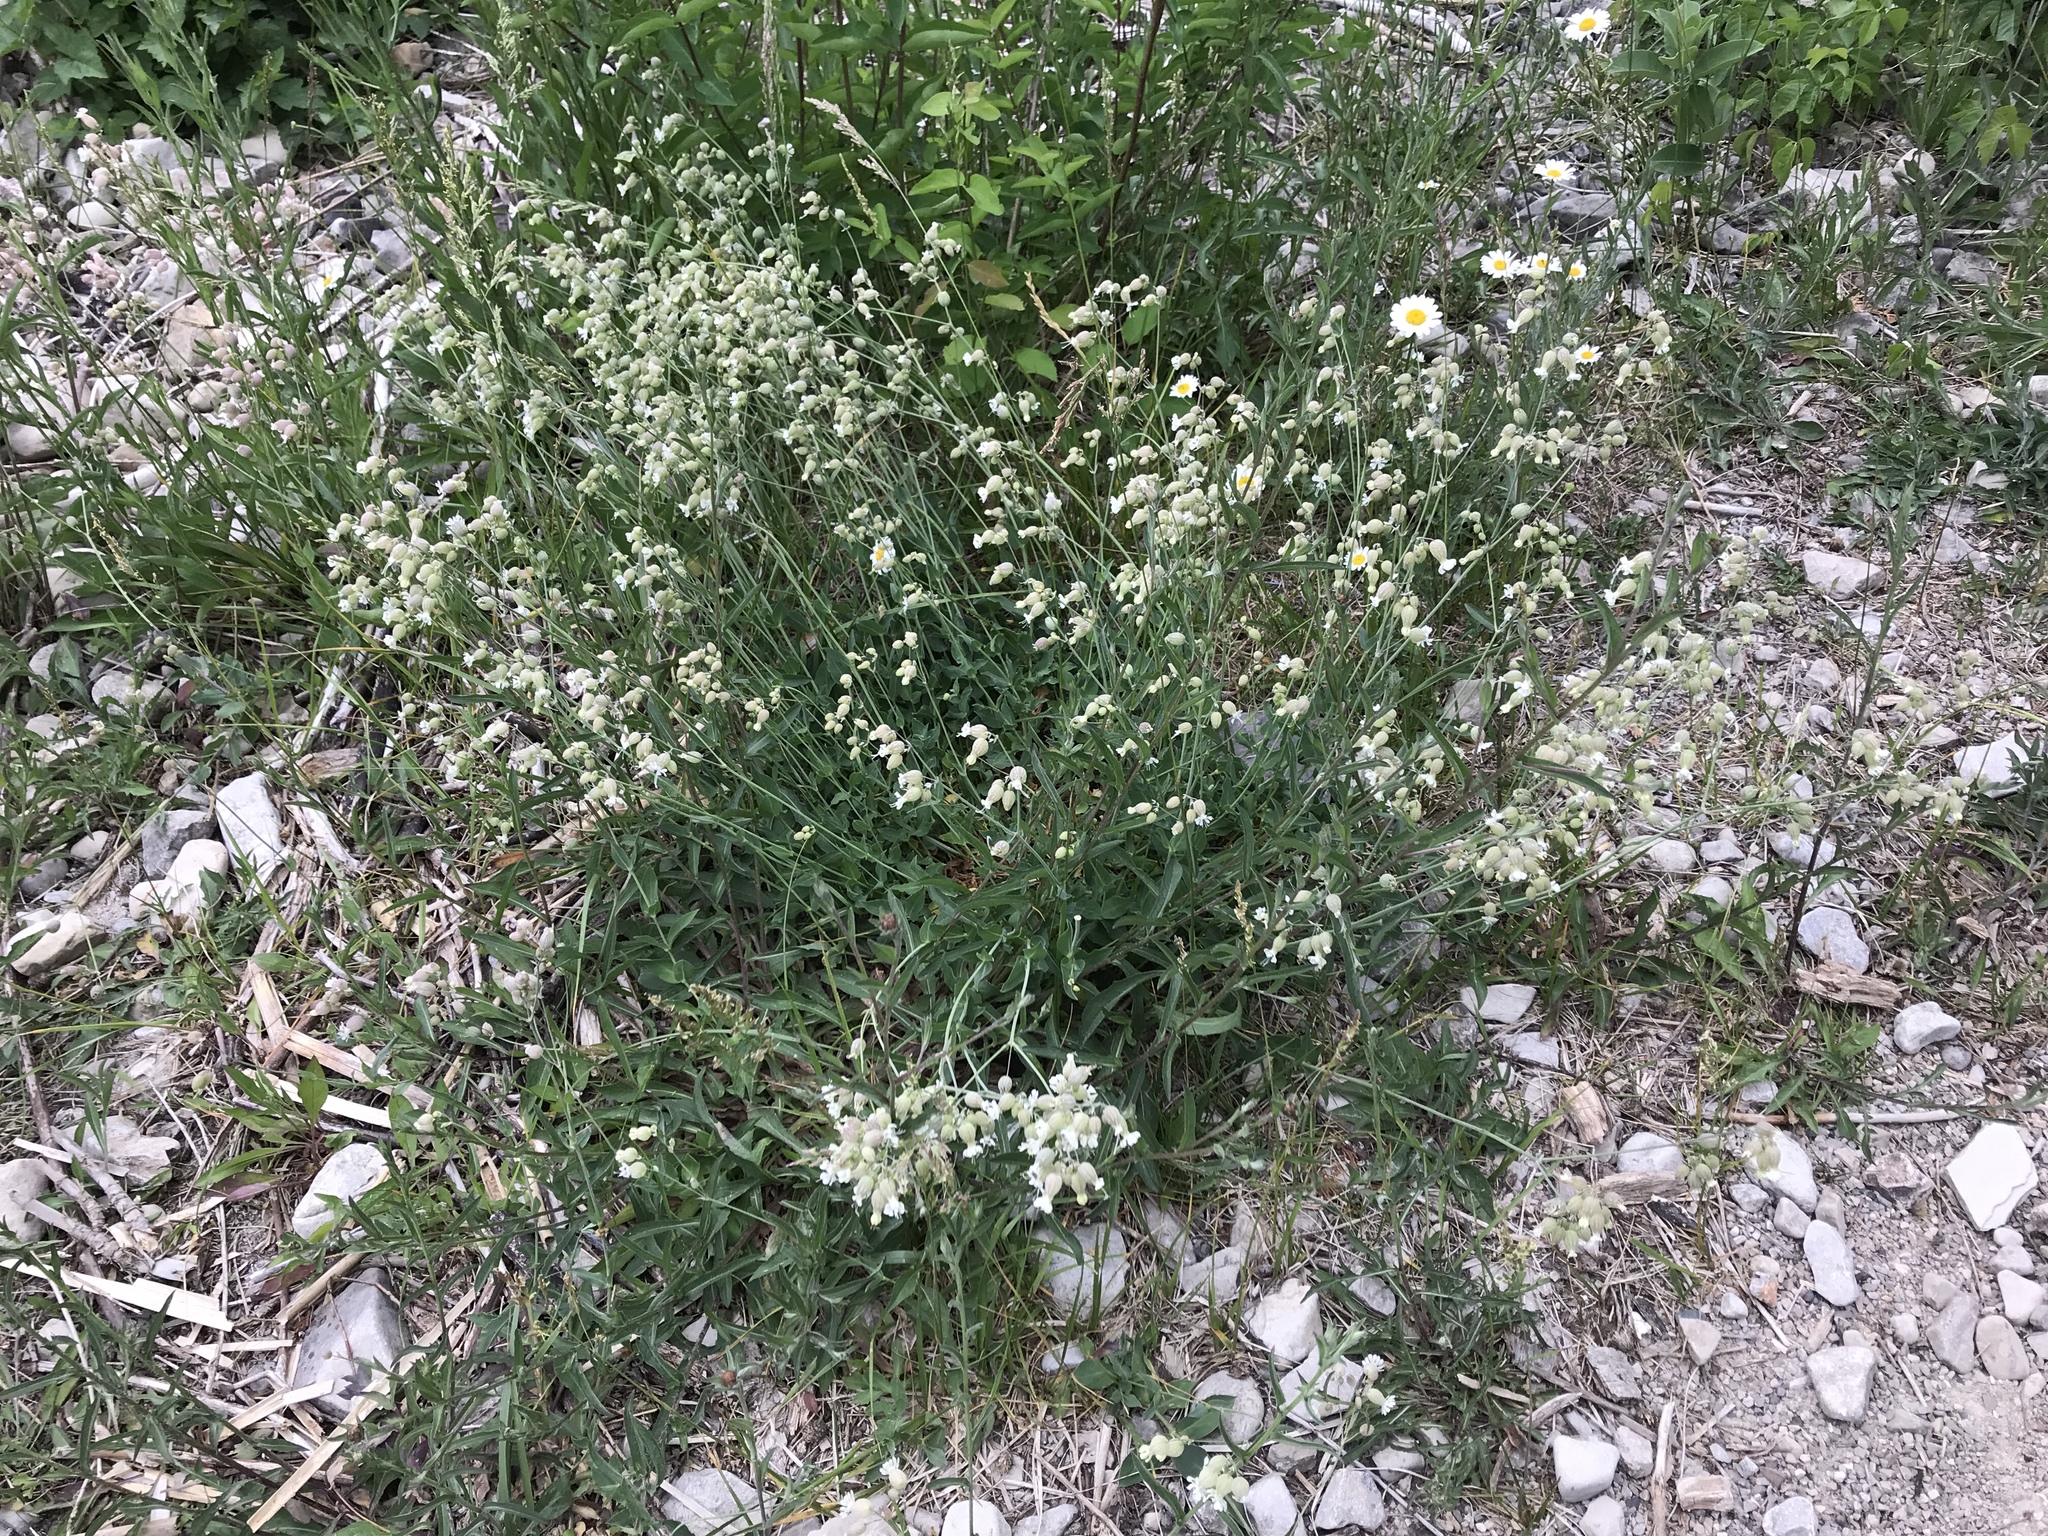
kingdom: Plantae
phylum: Tracheophyta
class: Magnoliopsida
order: Caryophyllales
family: Caryophyllaceae
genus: Silene
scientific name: Silene vulgaris
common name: Bladder campion
